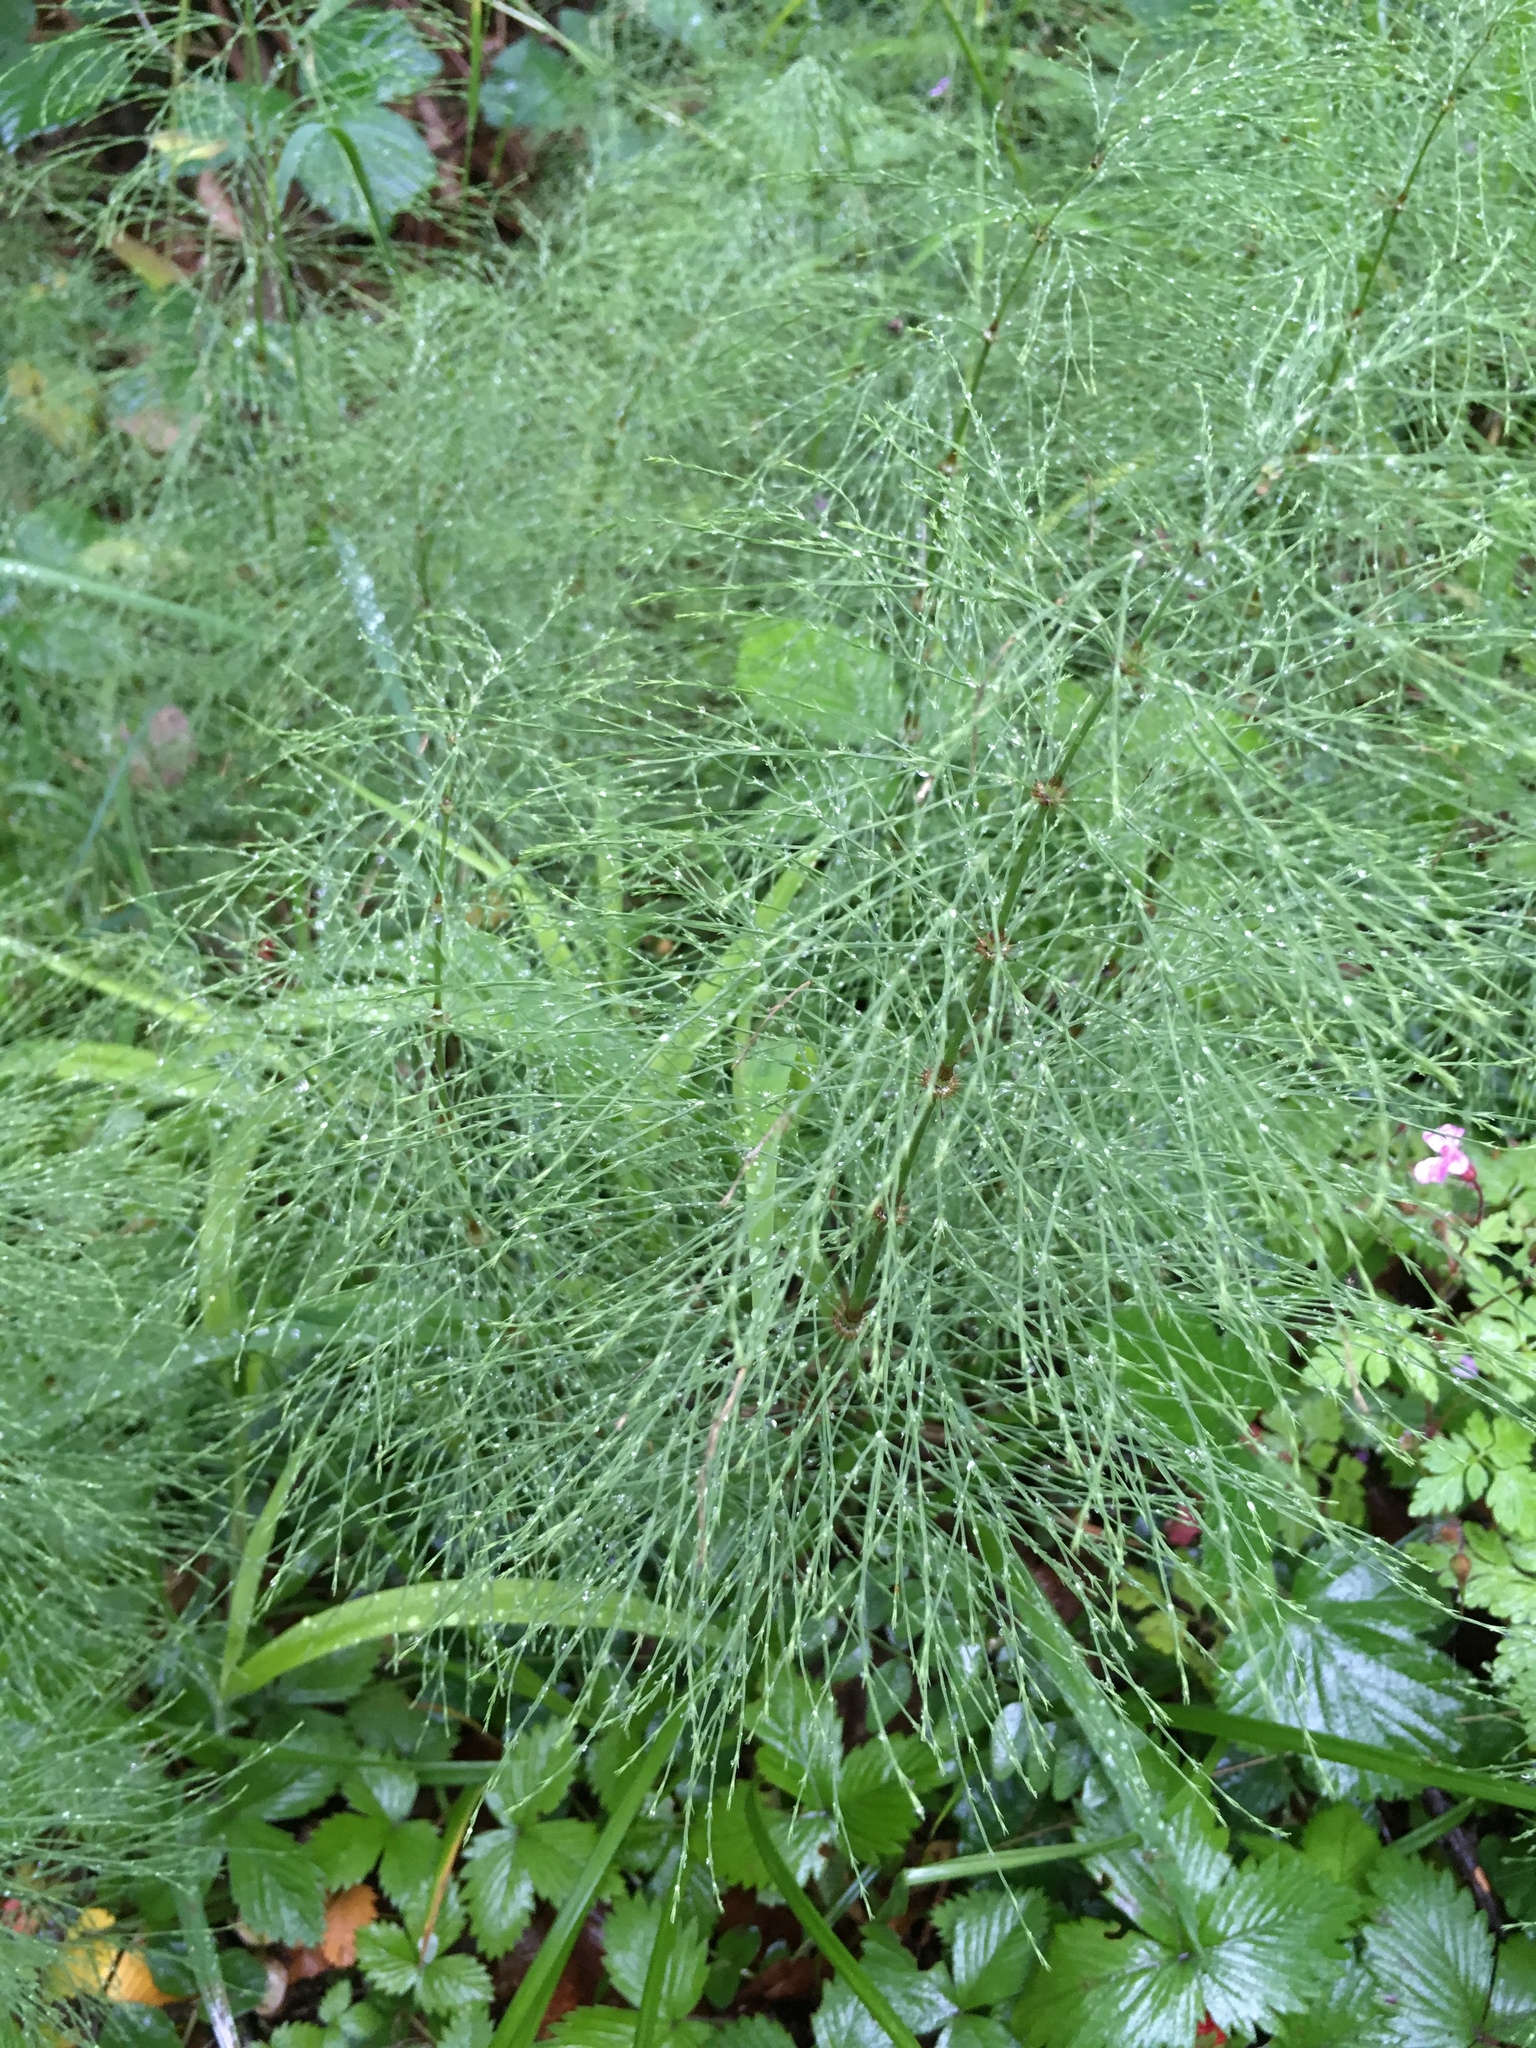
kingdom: Plantae
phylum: Tracheophyta
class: Polypodiopsida
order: Equisetales
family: Equisetaceae
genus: Equisetum
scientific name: Equisetum sylvaticum
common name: Wood horsetail
